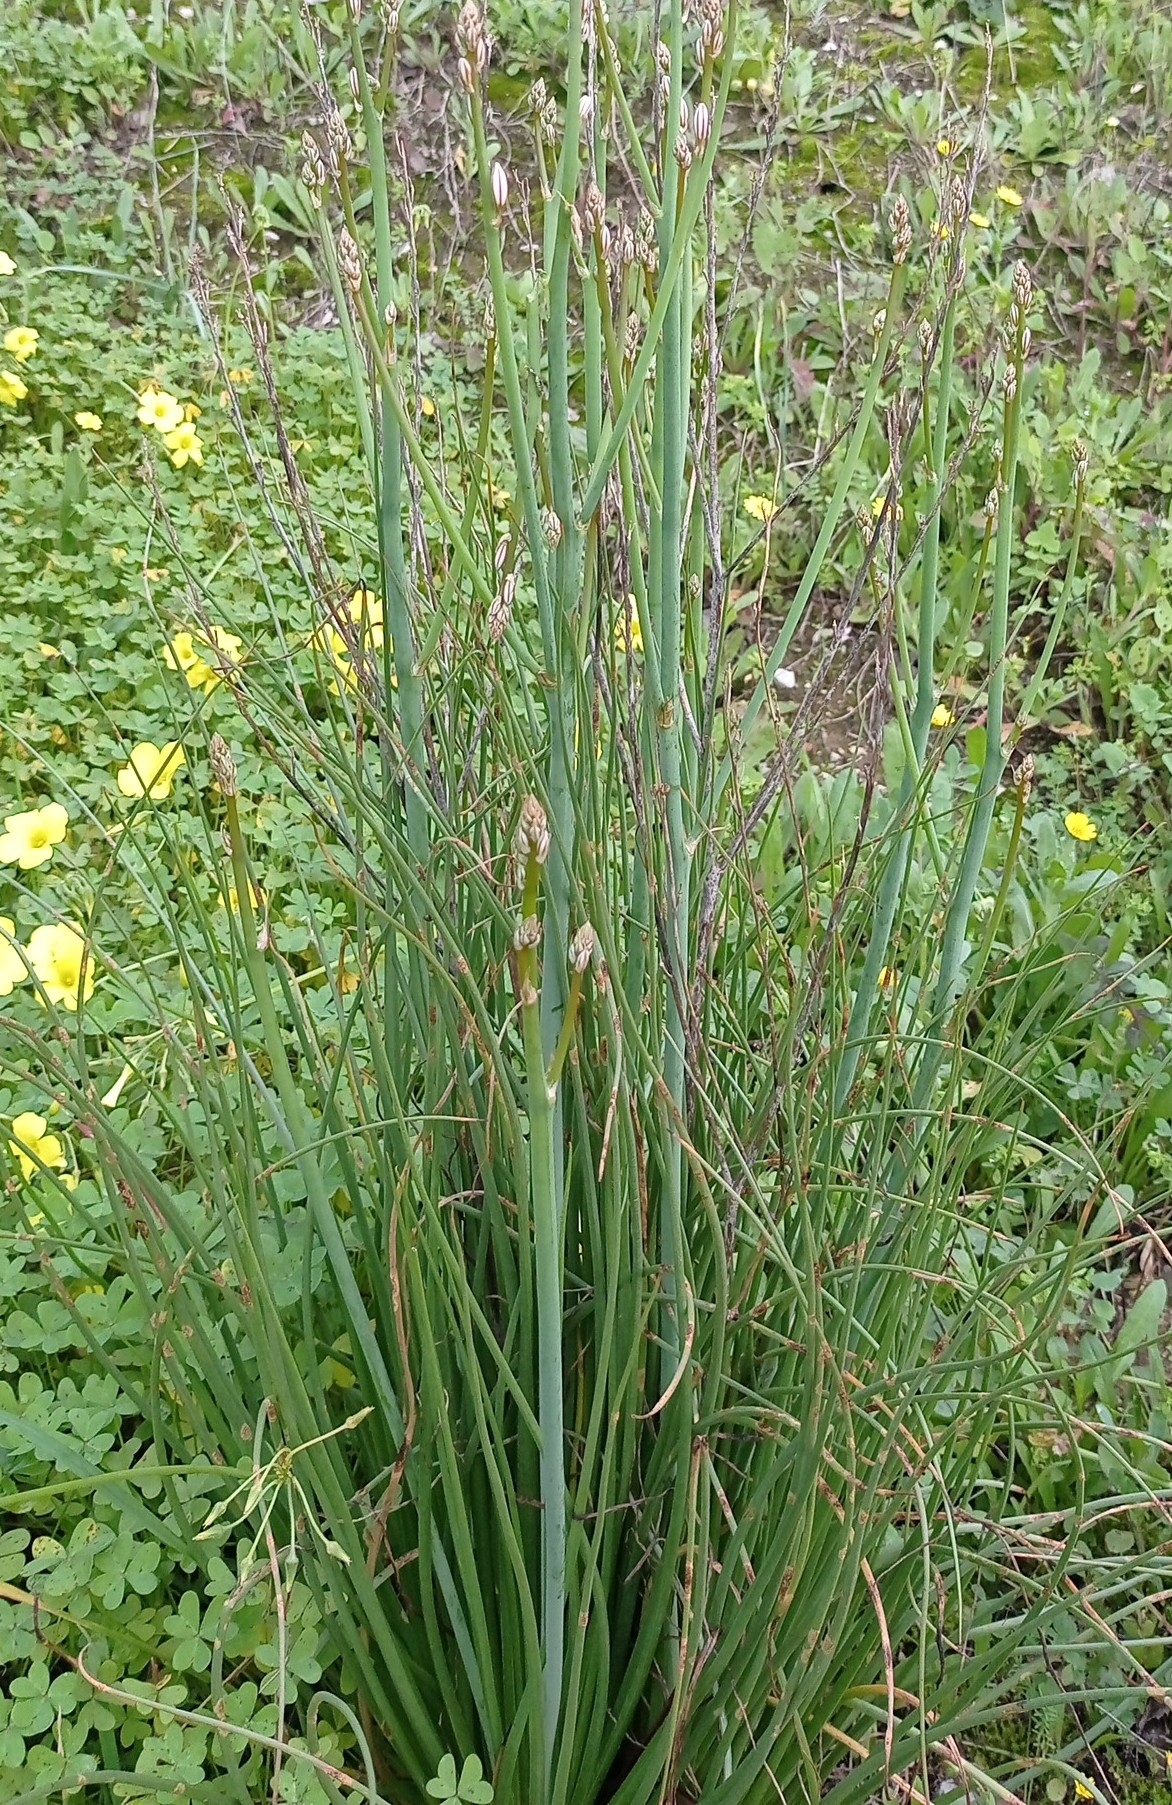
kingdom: Plantae
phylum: Tracheophyta
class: Liliopsida
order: Asparagales
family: Asphodelaceae
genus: Asphodelus
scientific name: Asphodelus fistulosus
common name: Onionweed
